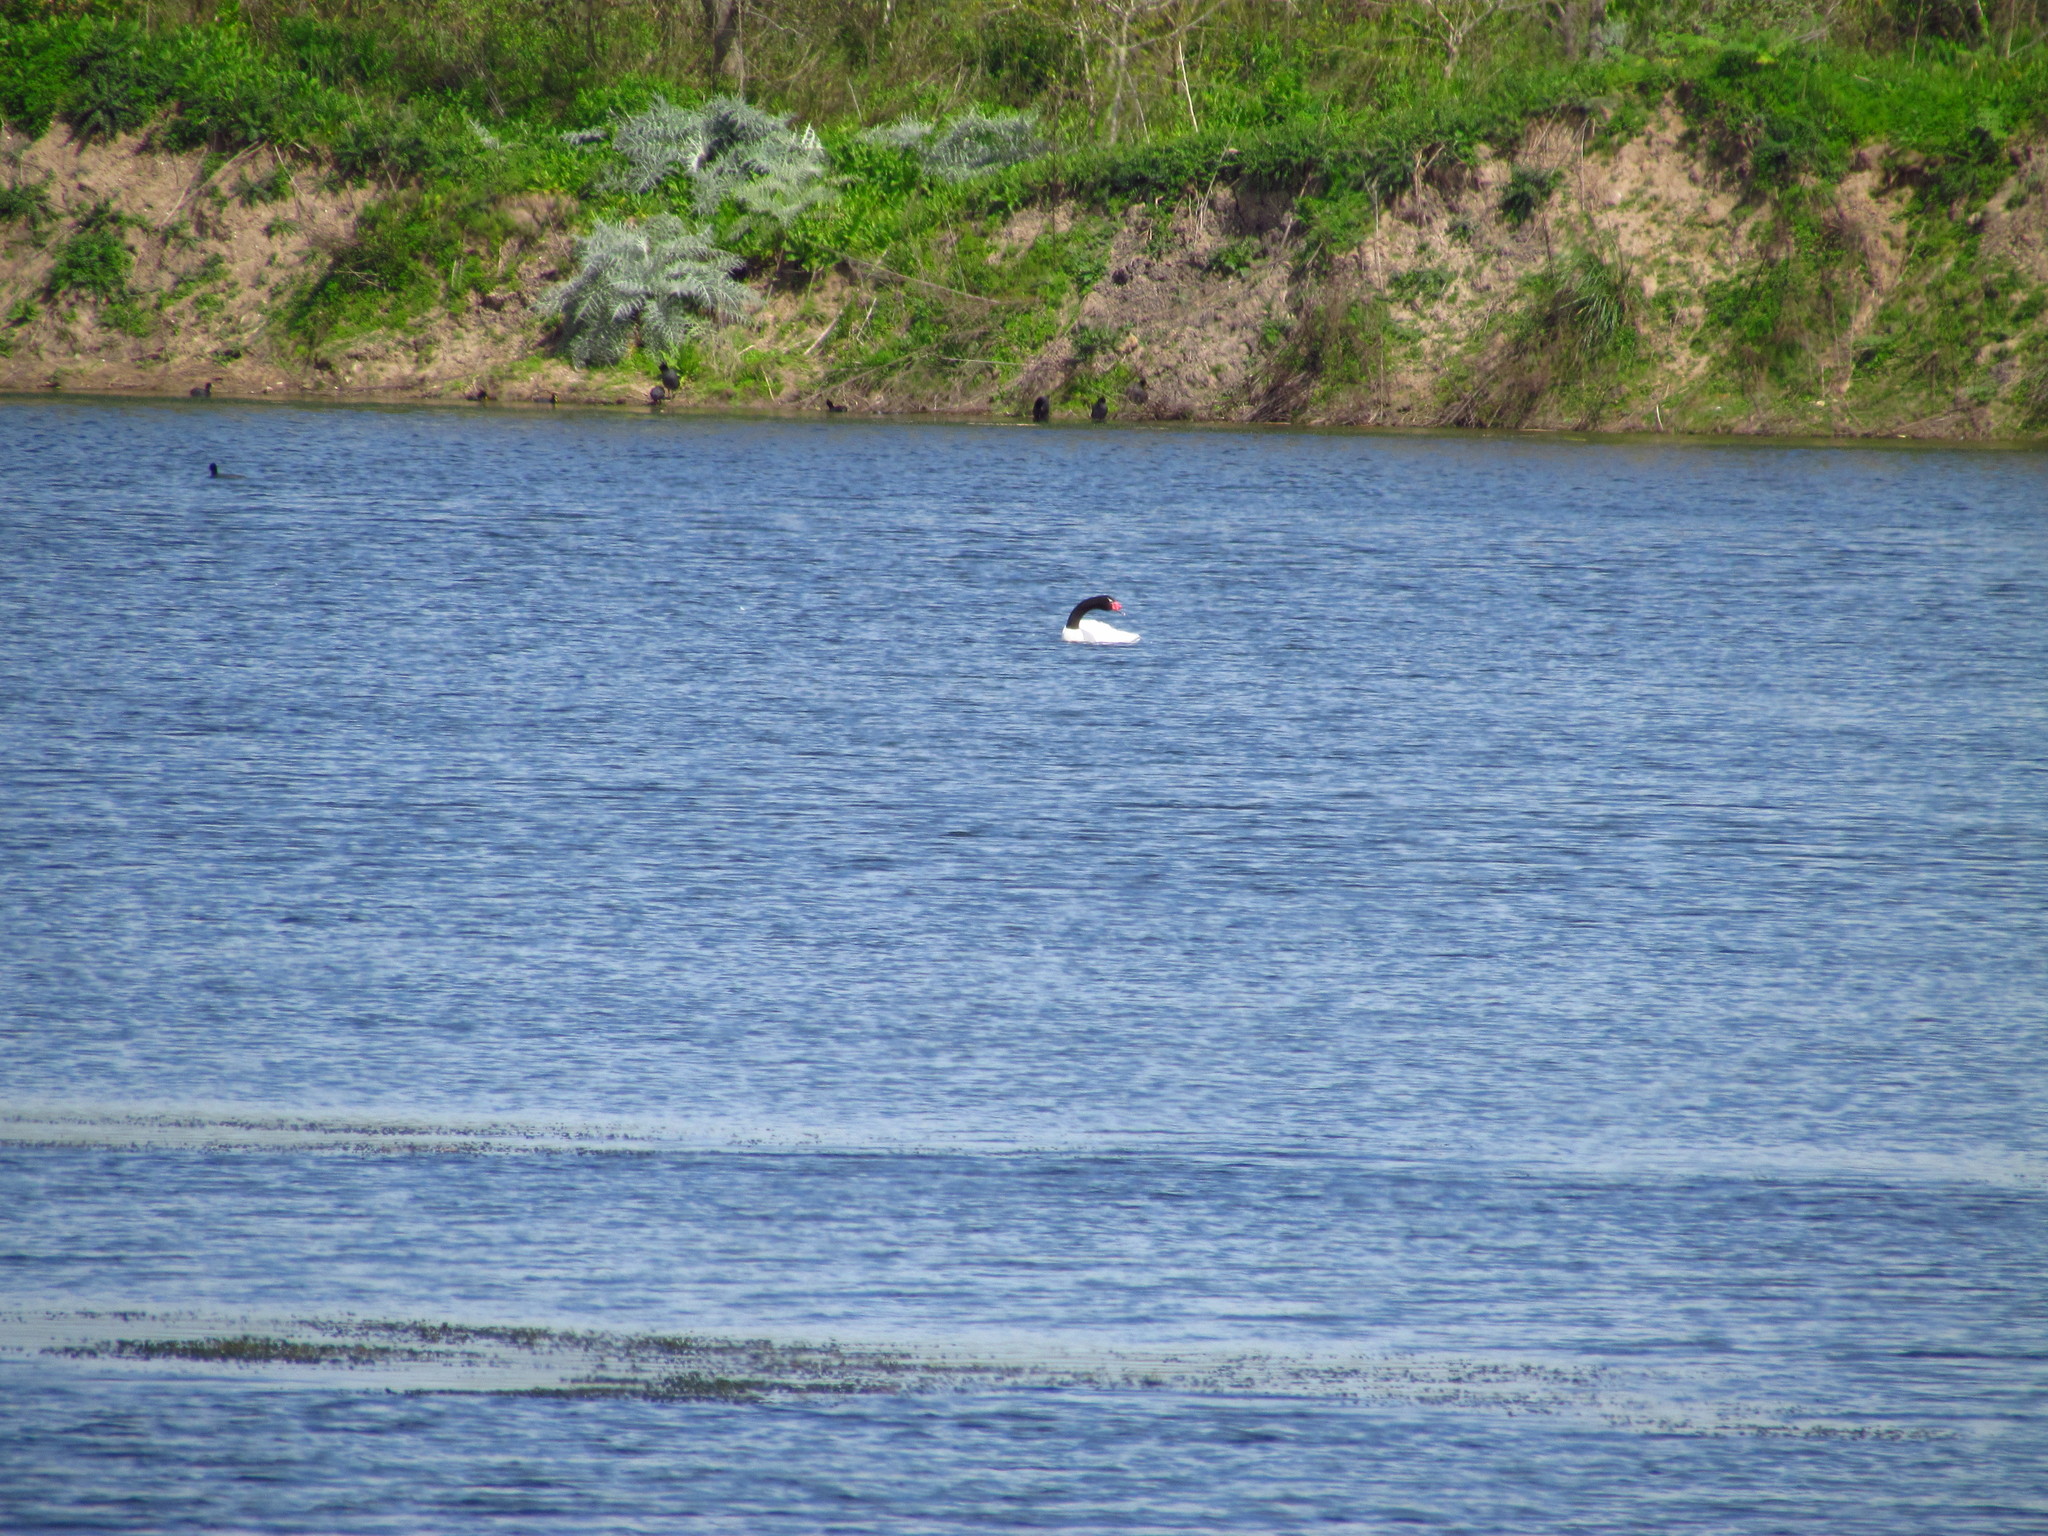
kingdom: Animalia
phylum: Chordata
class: Aves
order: Anseriformes
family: Anatidae
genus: Cygnus
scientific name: Cygnus melancoryphus
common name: Black-necked swan
